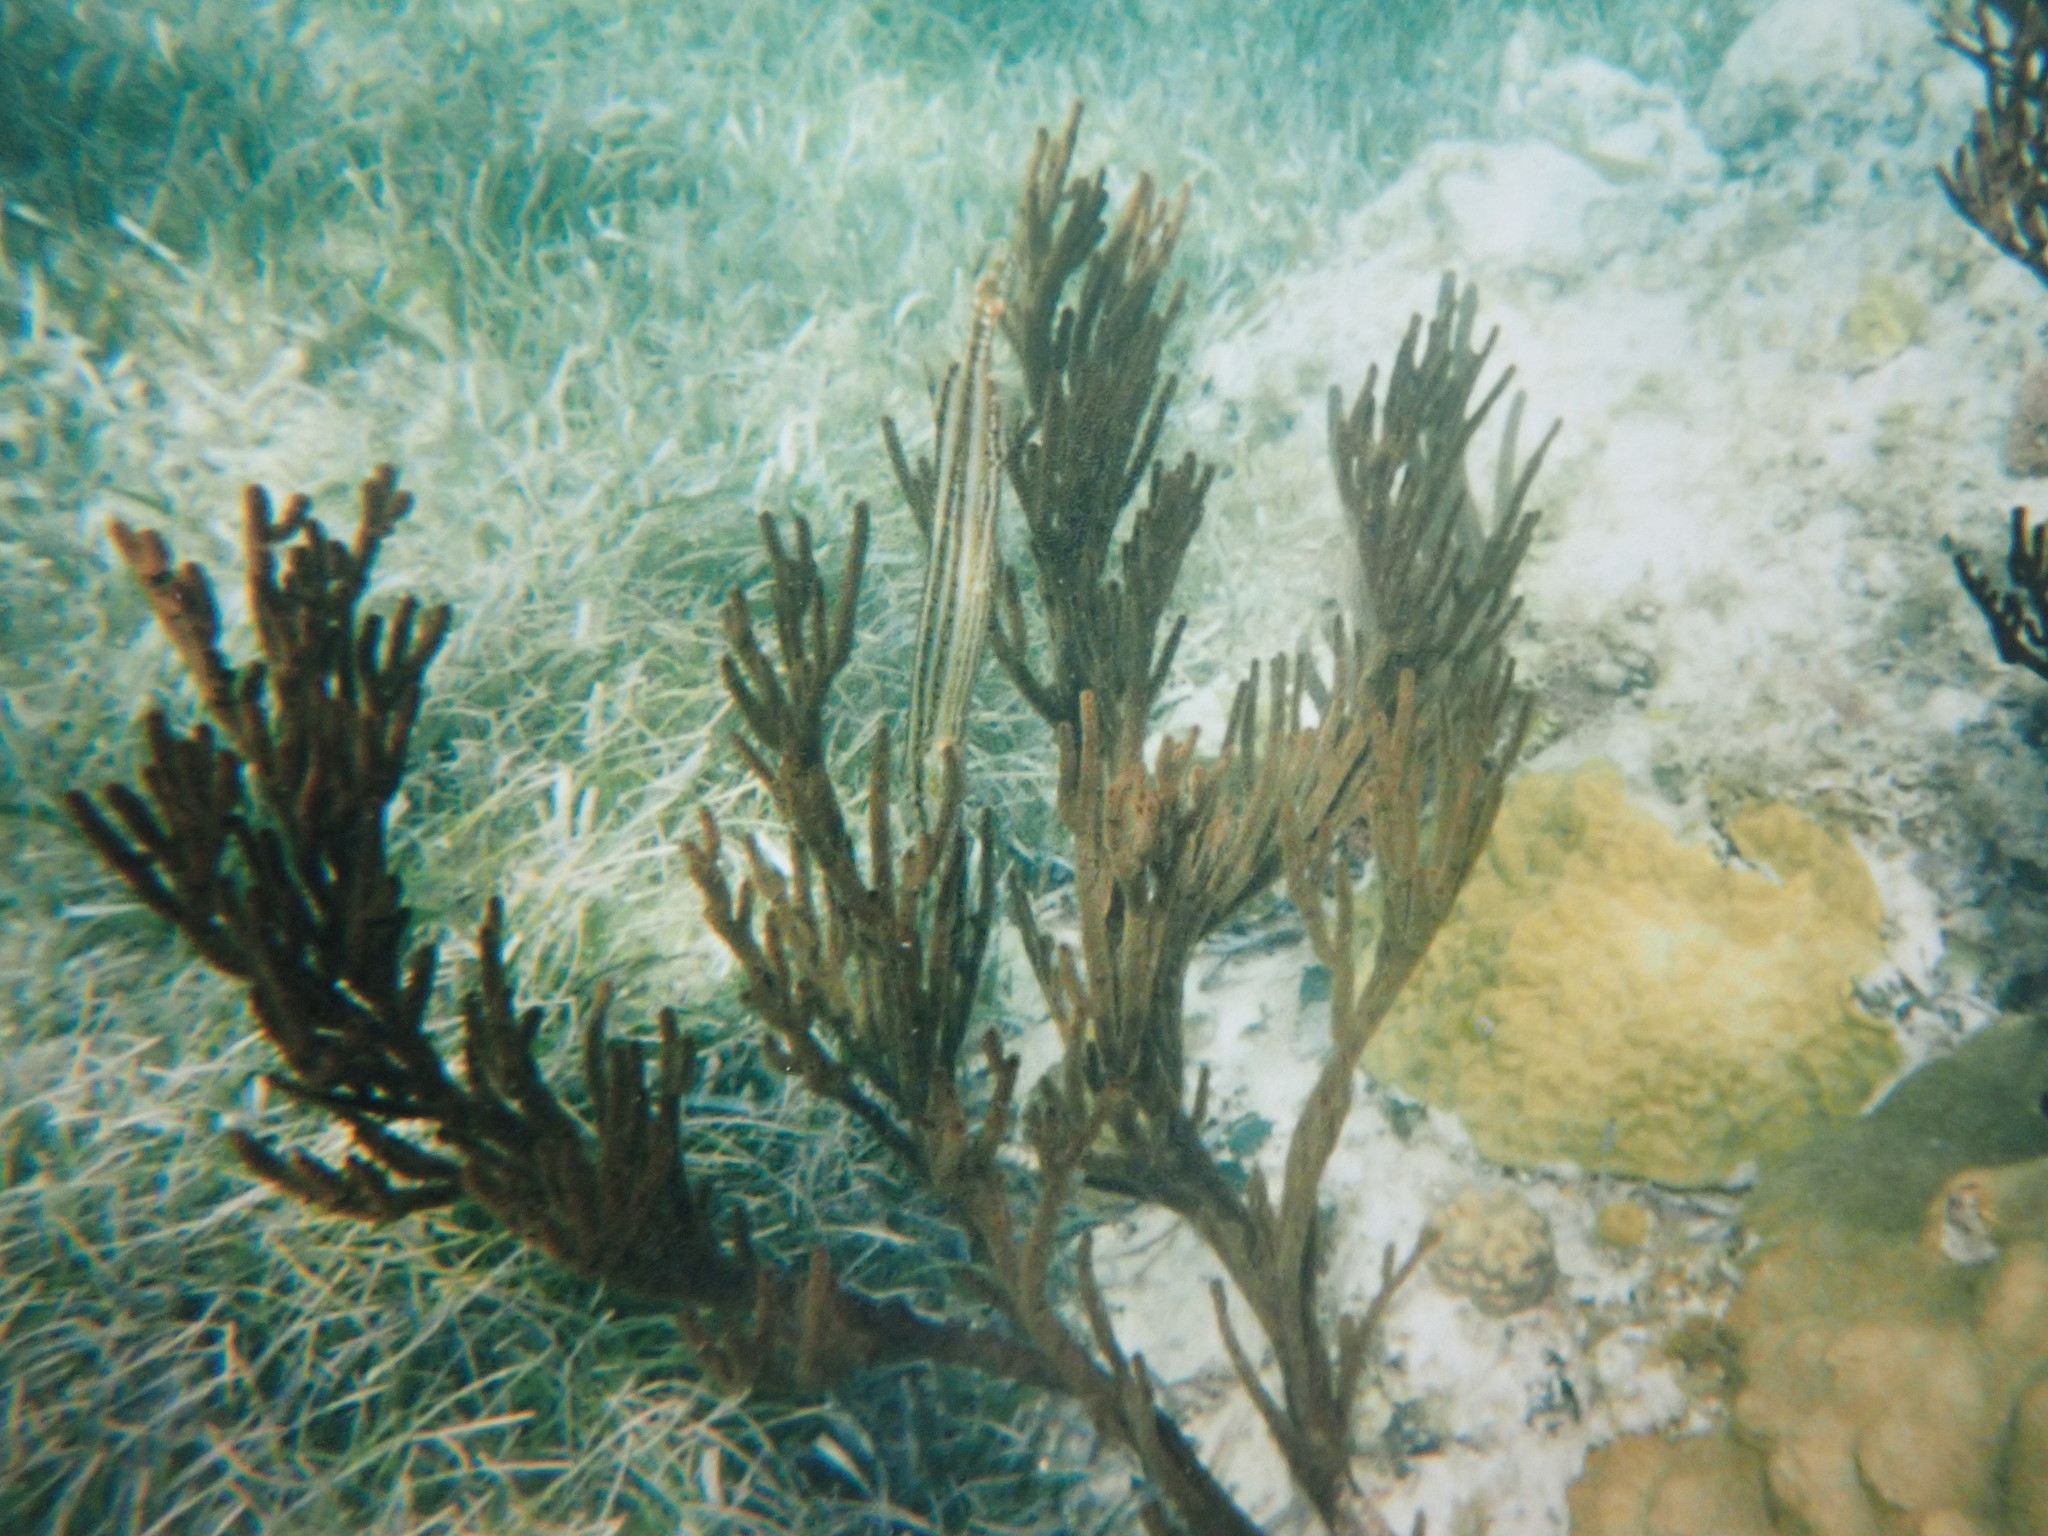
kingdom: Animalia
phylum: Chordata
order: Syngnathiformes
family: Aulostomidae
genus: Aulostomus
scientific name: Aulostomus maculatus
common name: West atlantic trumpetfish
